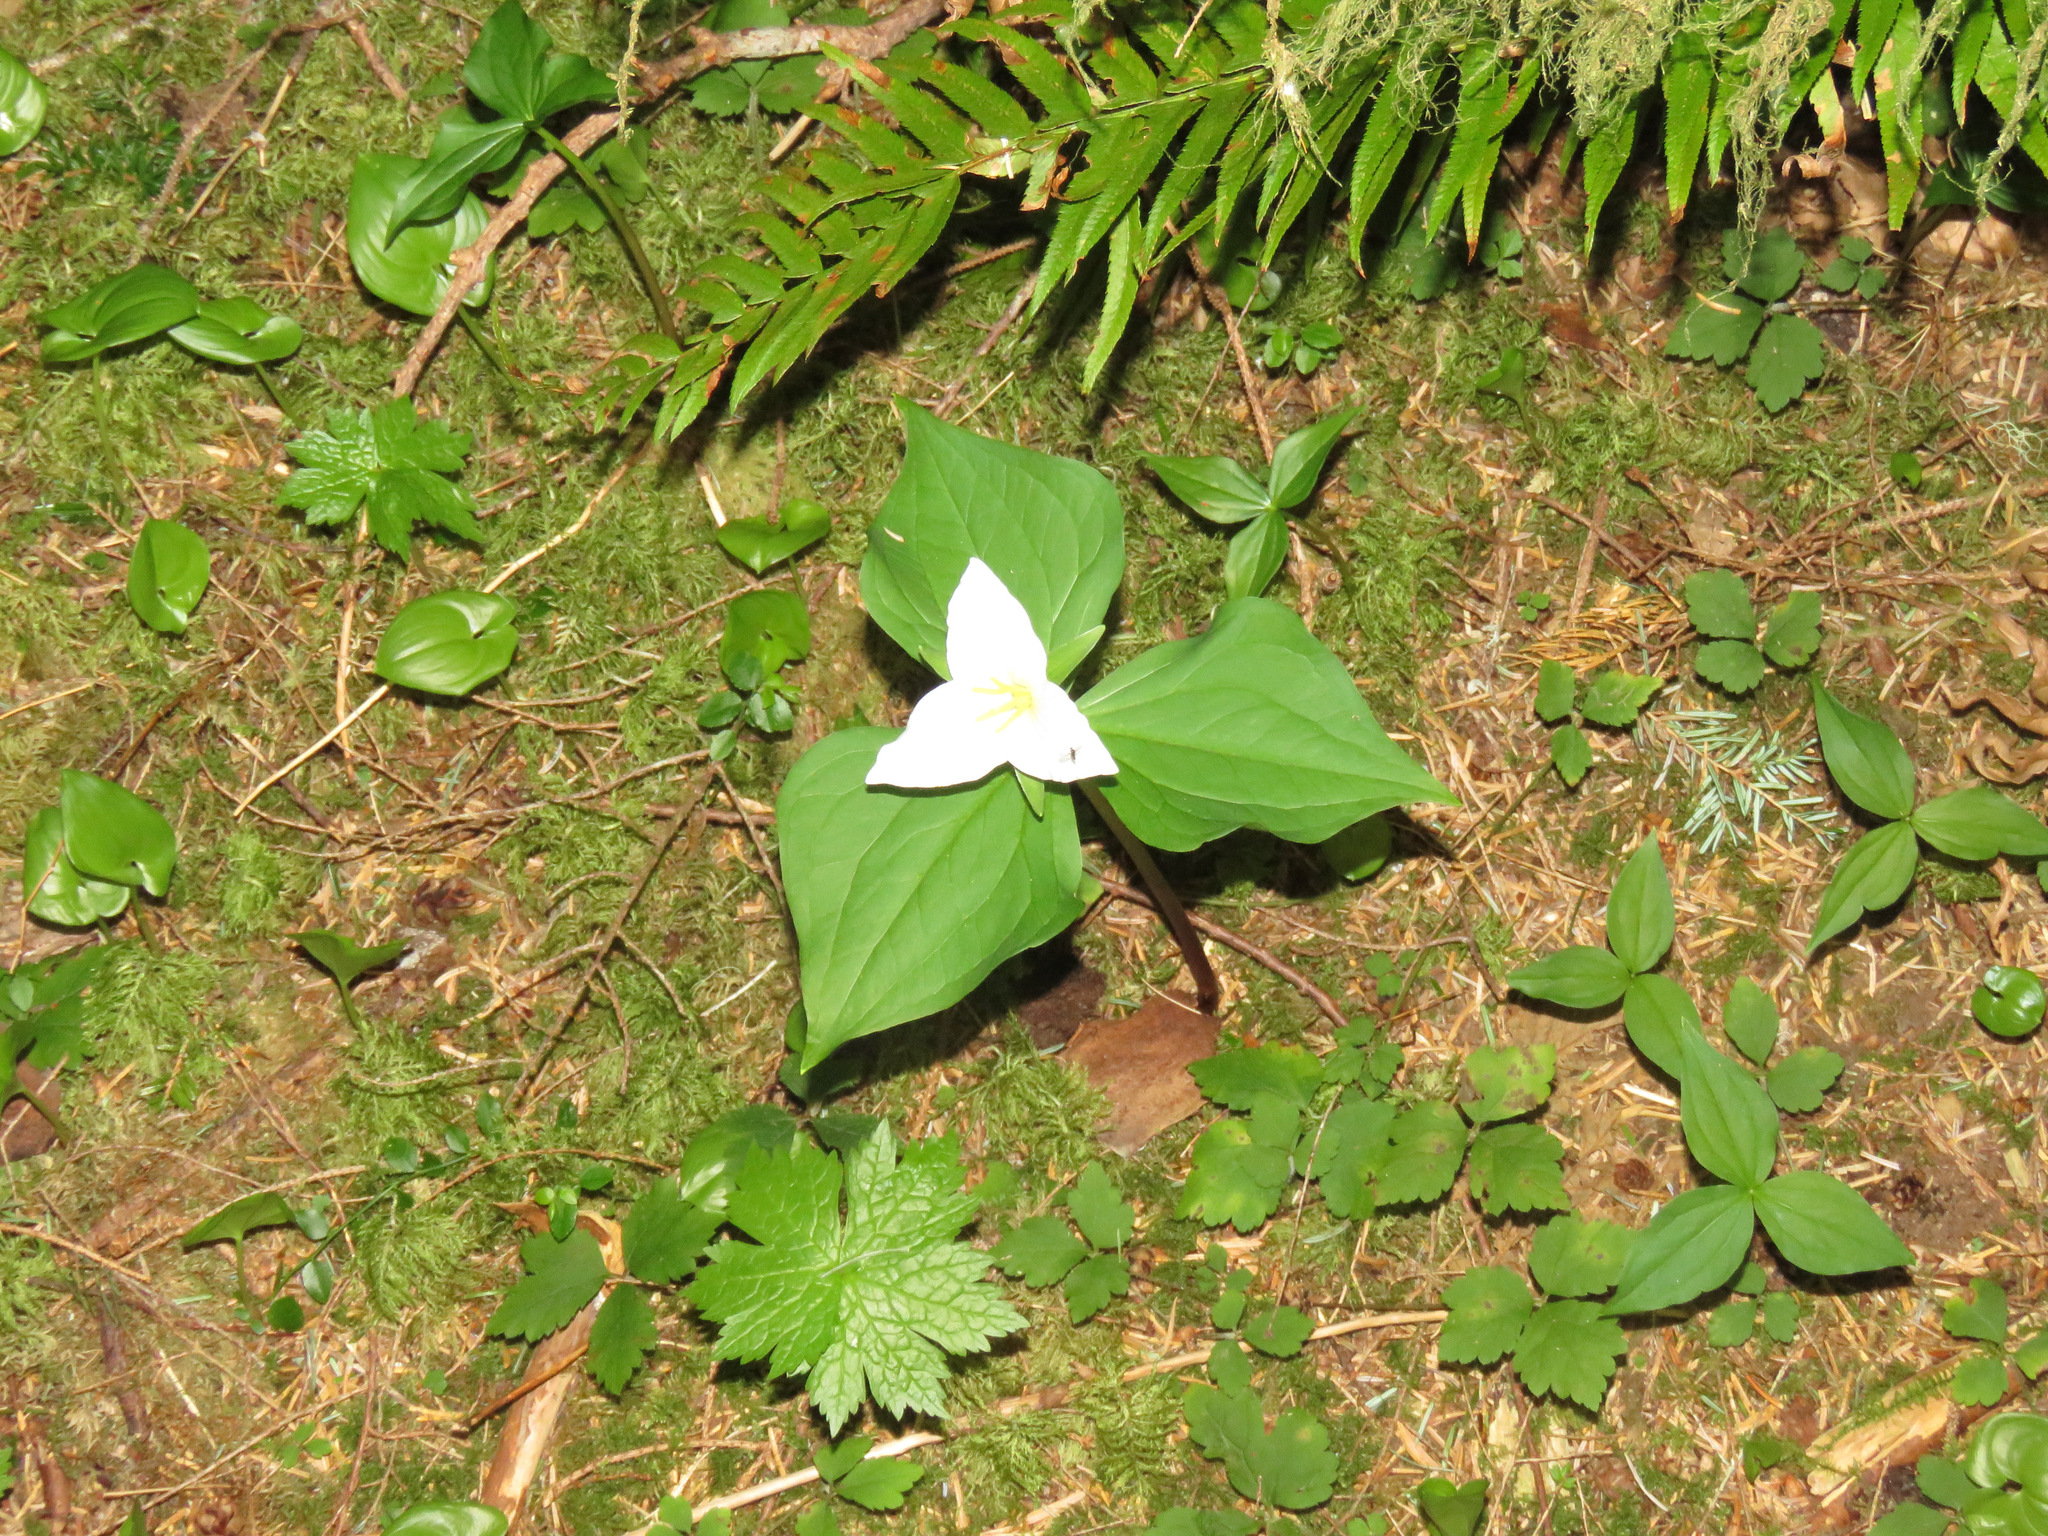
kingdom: Plantae
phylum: Tracheophyta
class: Liliopsida
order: Liliales
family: Melanthiaceae
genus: Trillium
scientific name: Trillium ovatum
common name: Pacific trillium
